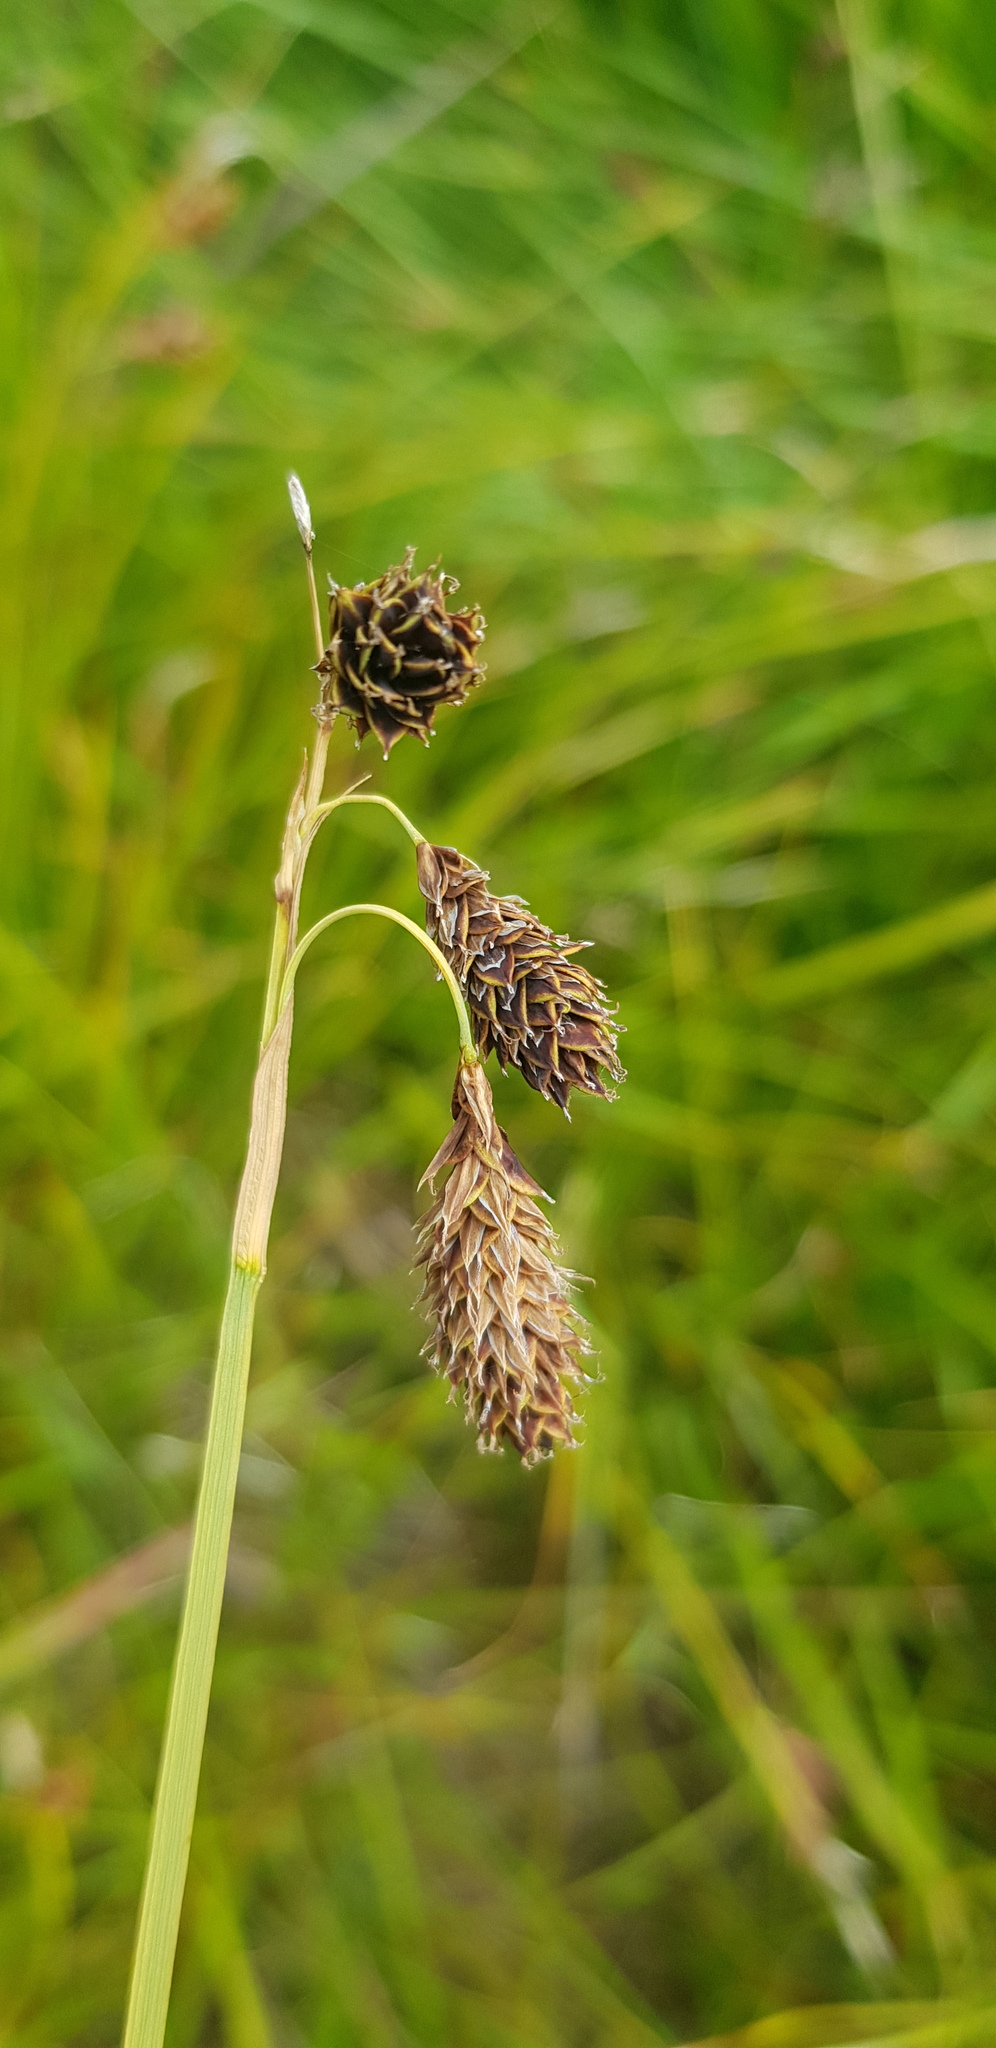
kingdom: Plantae
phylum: Tracheophyta
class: Liliopsida
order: Poales
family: Cyperaceae
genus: Carex
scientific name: Carex coriophora
